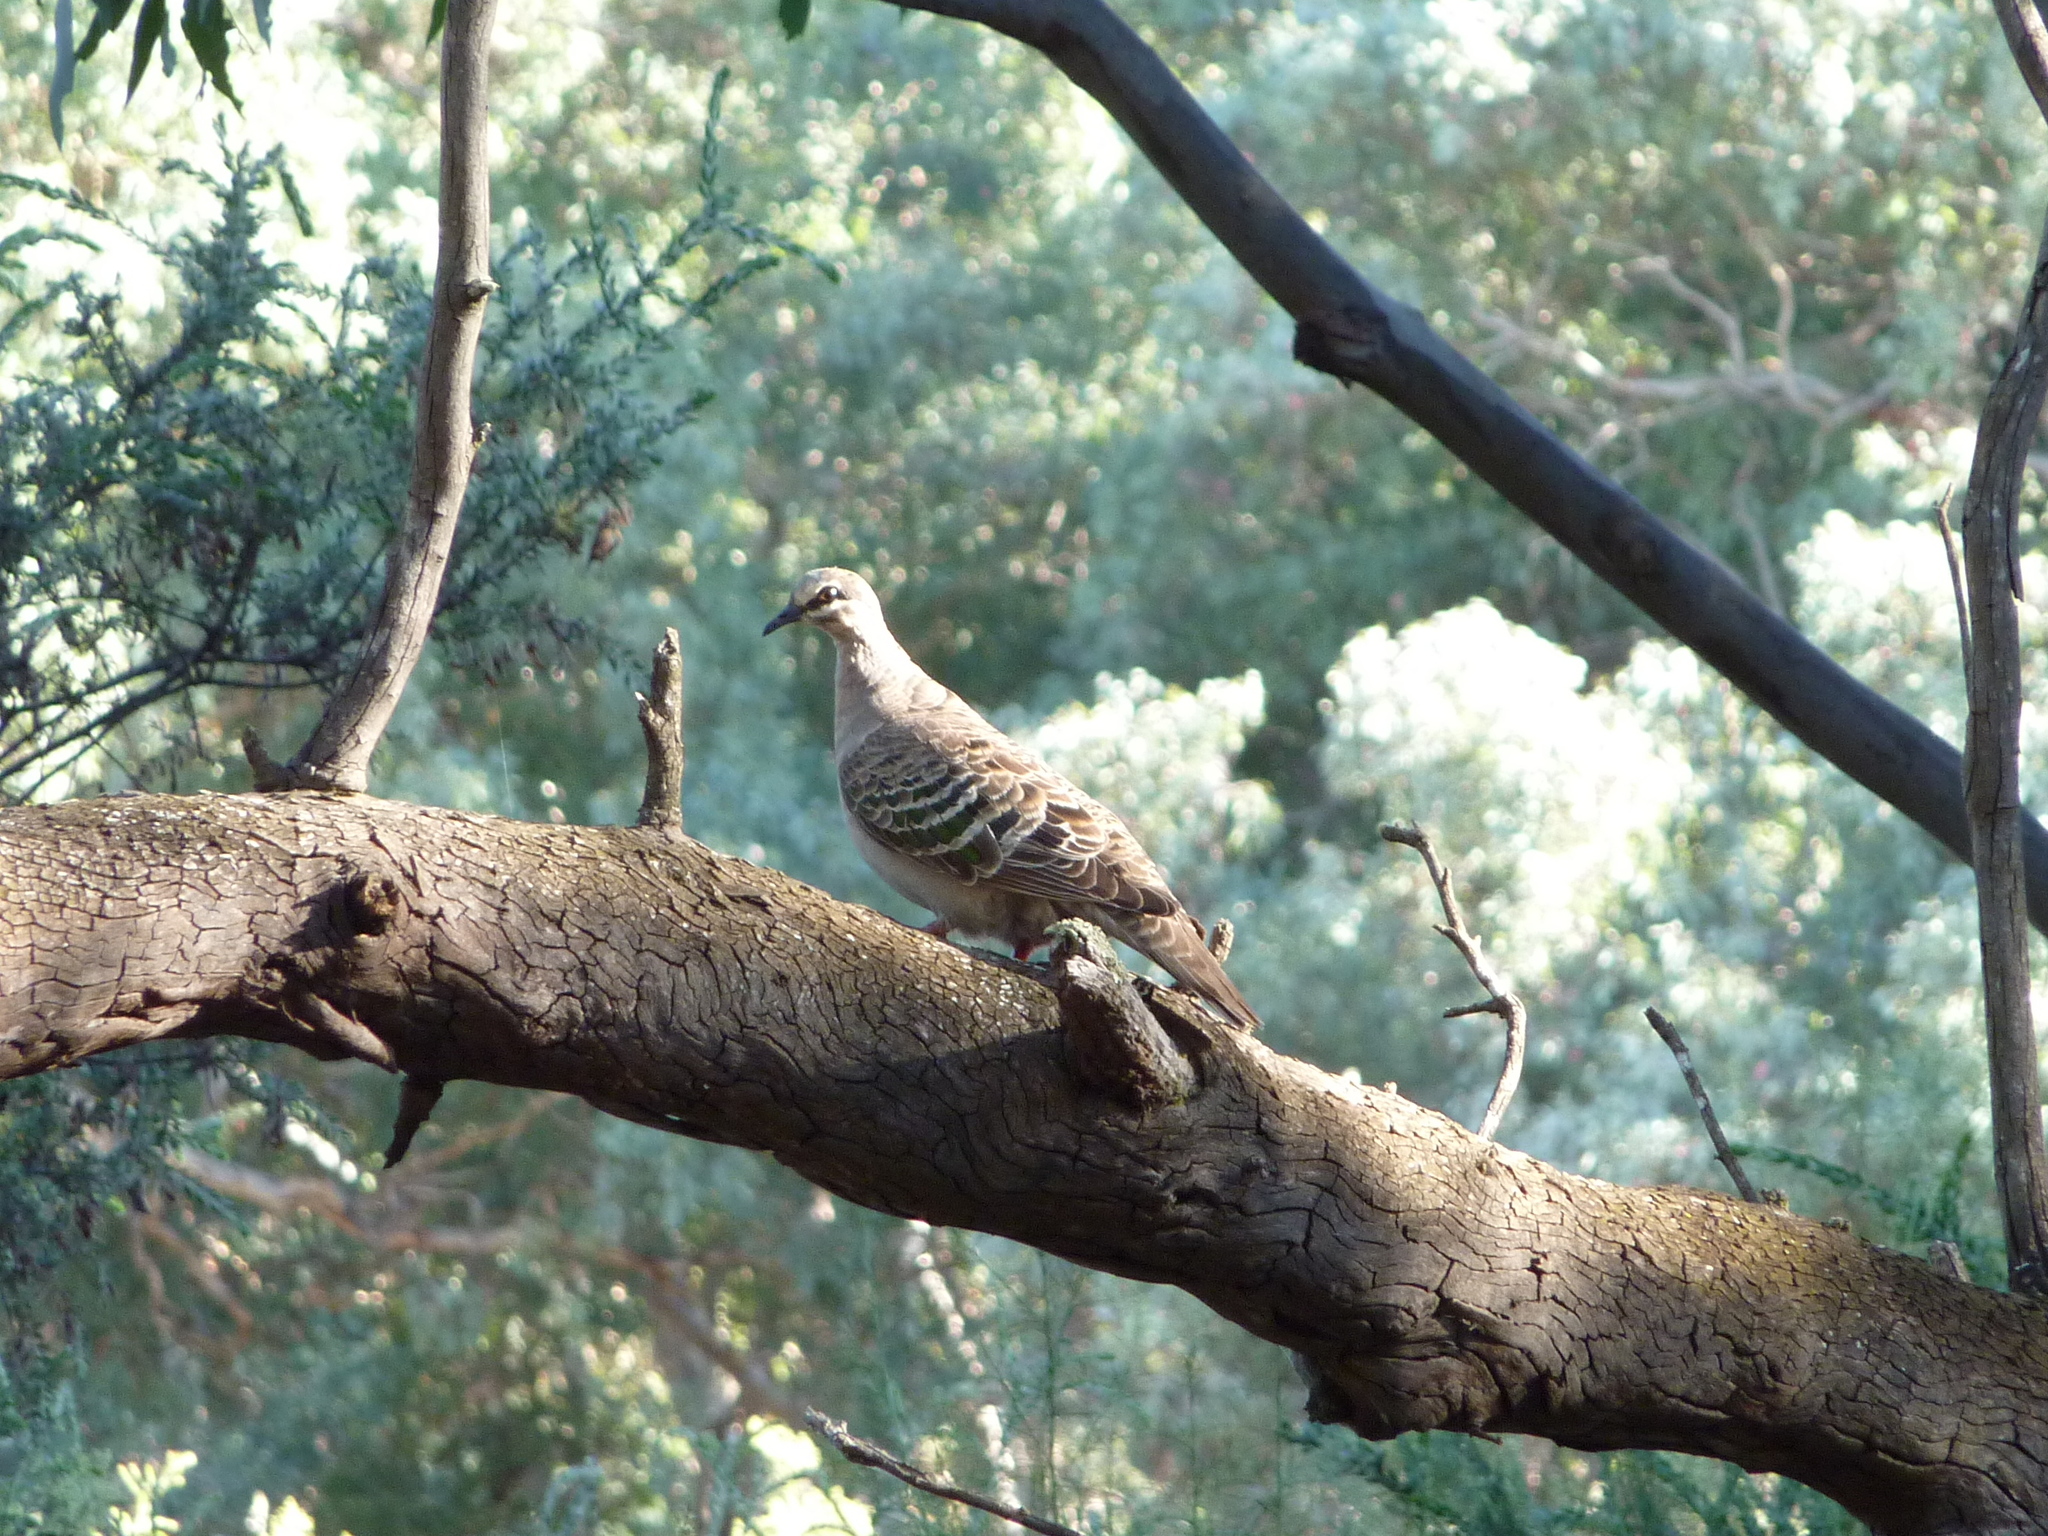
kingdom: Animalia
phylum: Chordata
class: Aves
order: Columbiformes
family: Columbidae
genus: Phaps
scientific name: Phaps chalcoptera
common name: Common bronzewing
